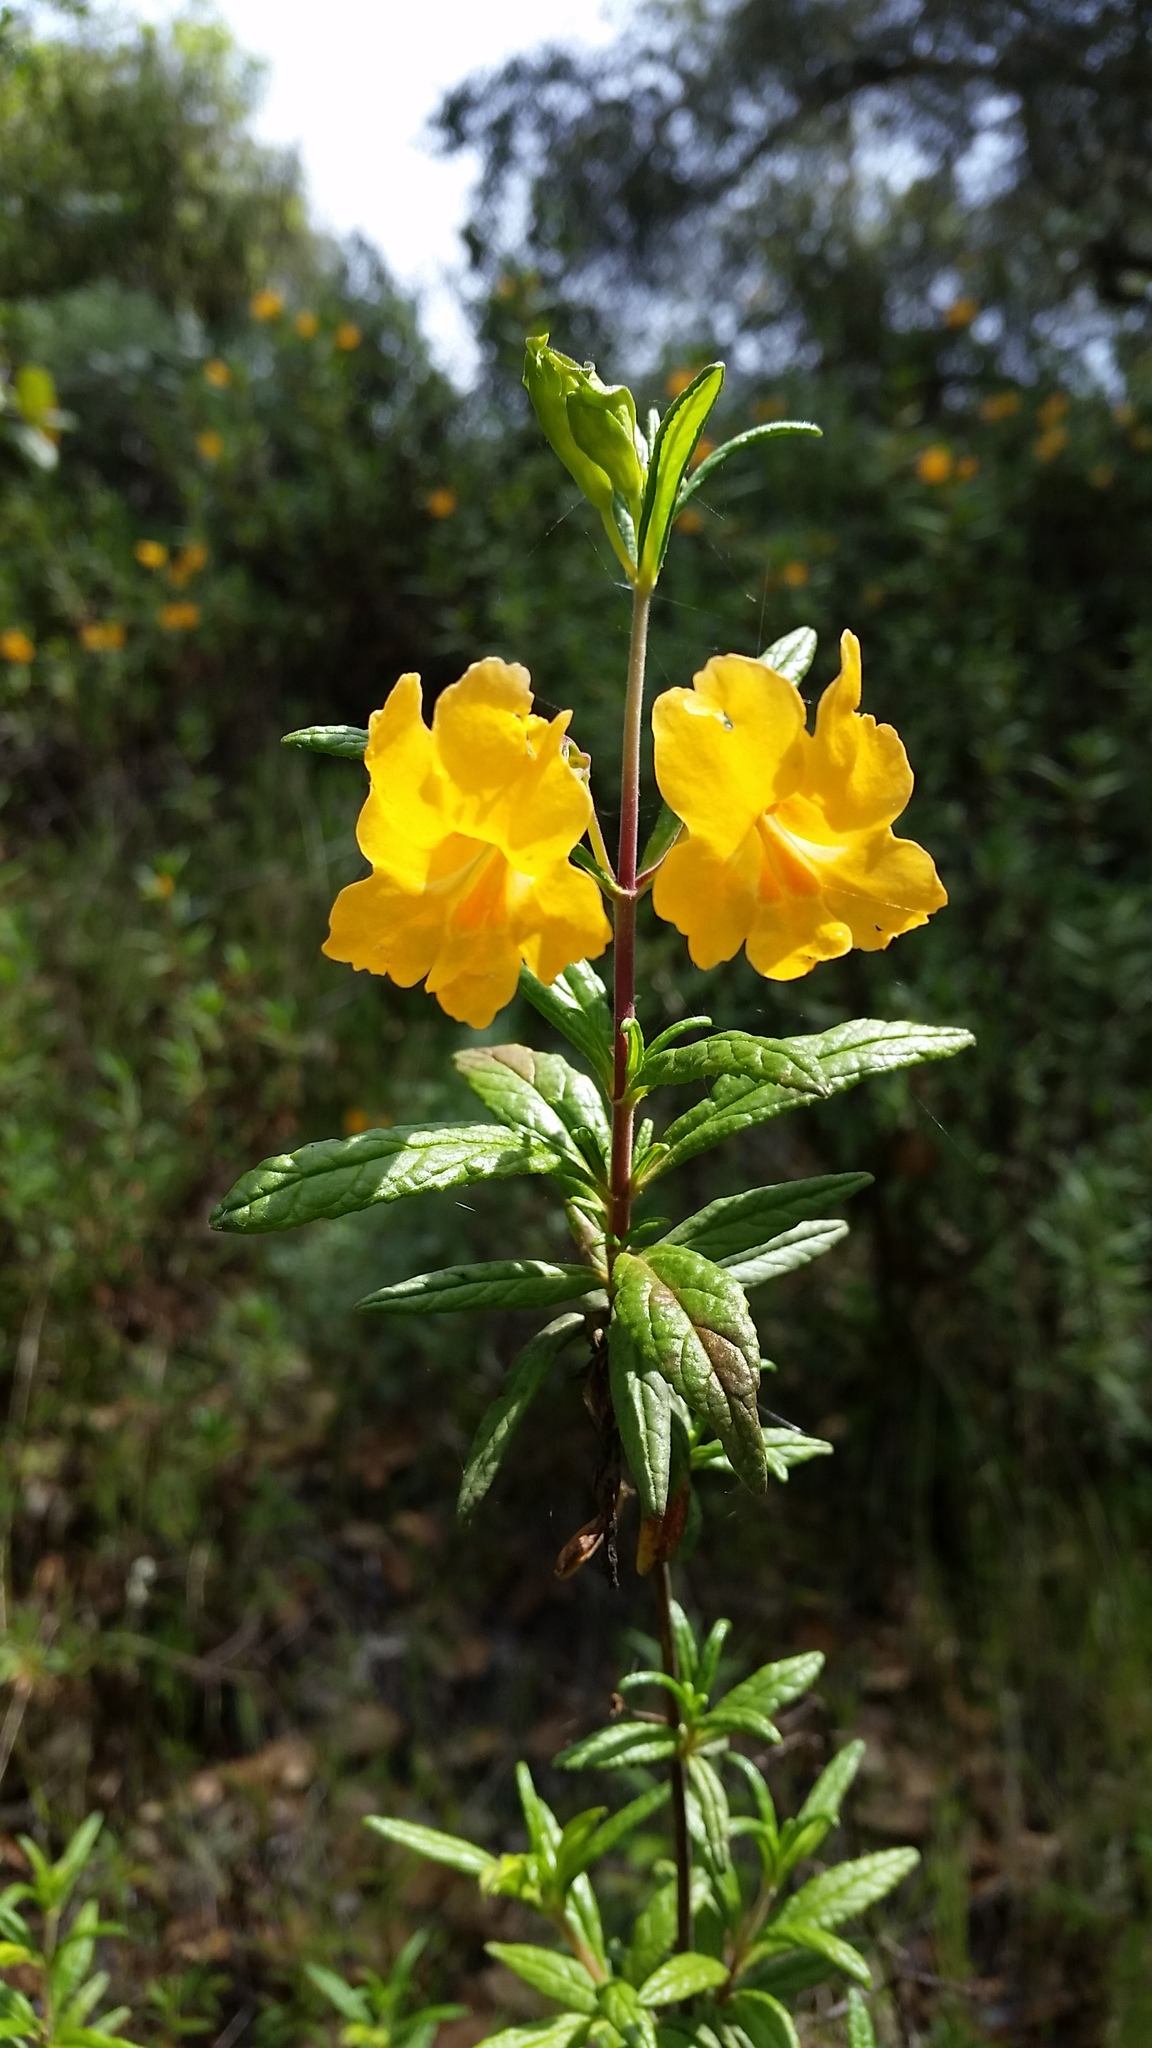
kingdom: Plantae
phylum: Tracheophyta
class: Magnoliopsida
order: Lamiales
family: Phrymaceae
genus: Diplacus
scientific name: Diplacus aurantiacus
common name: Bush monkey-flower
